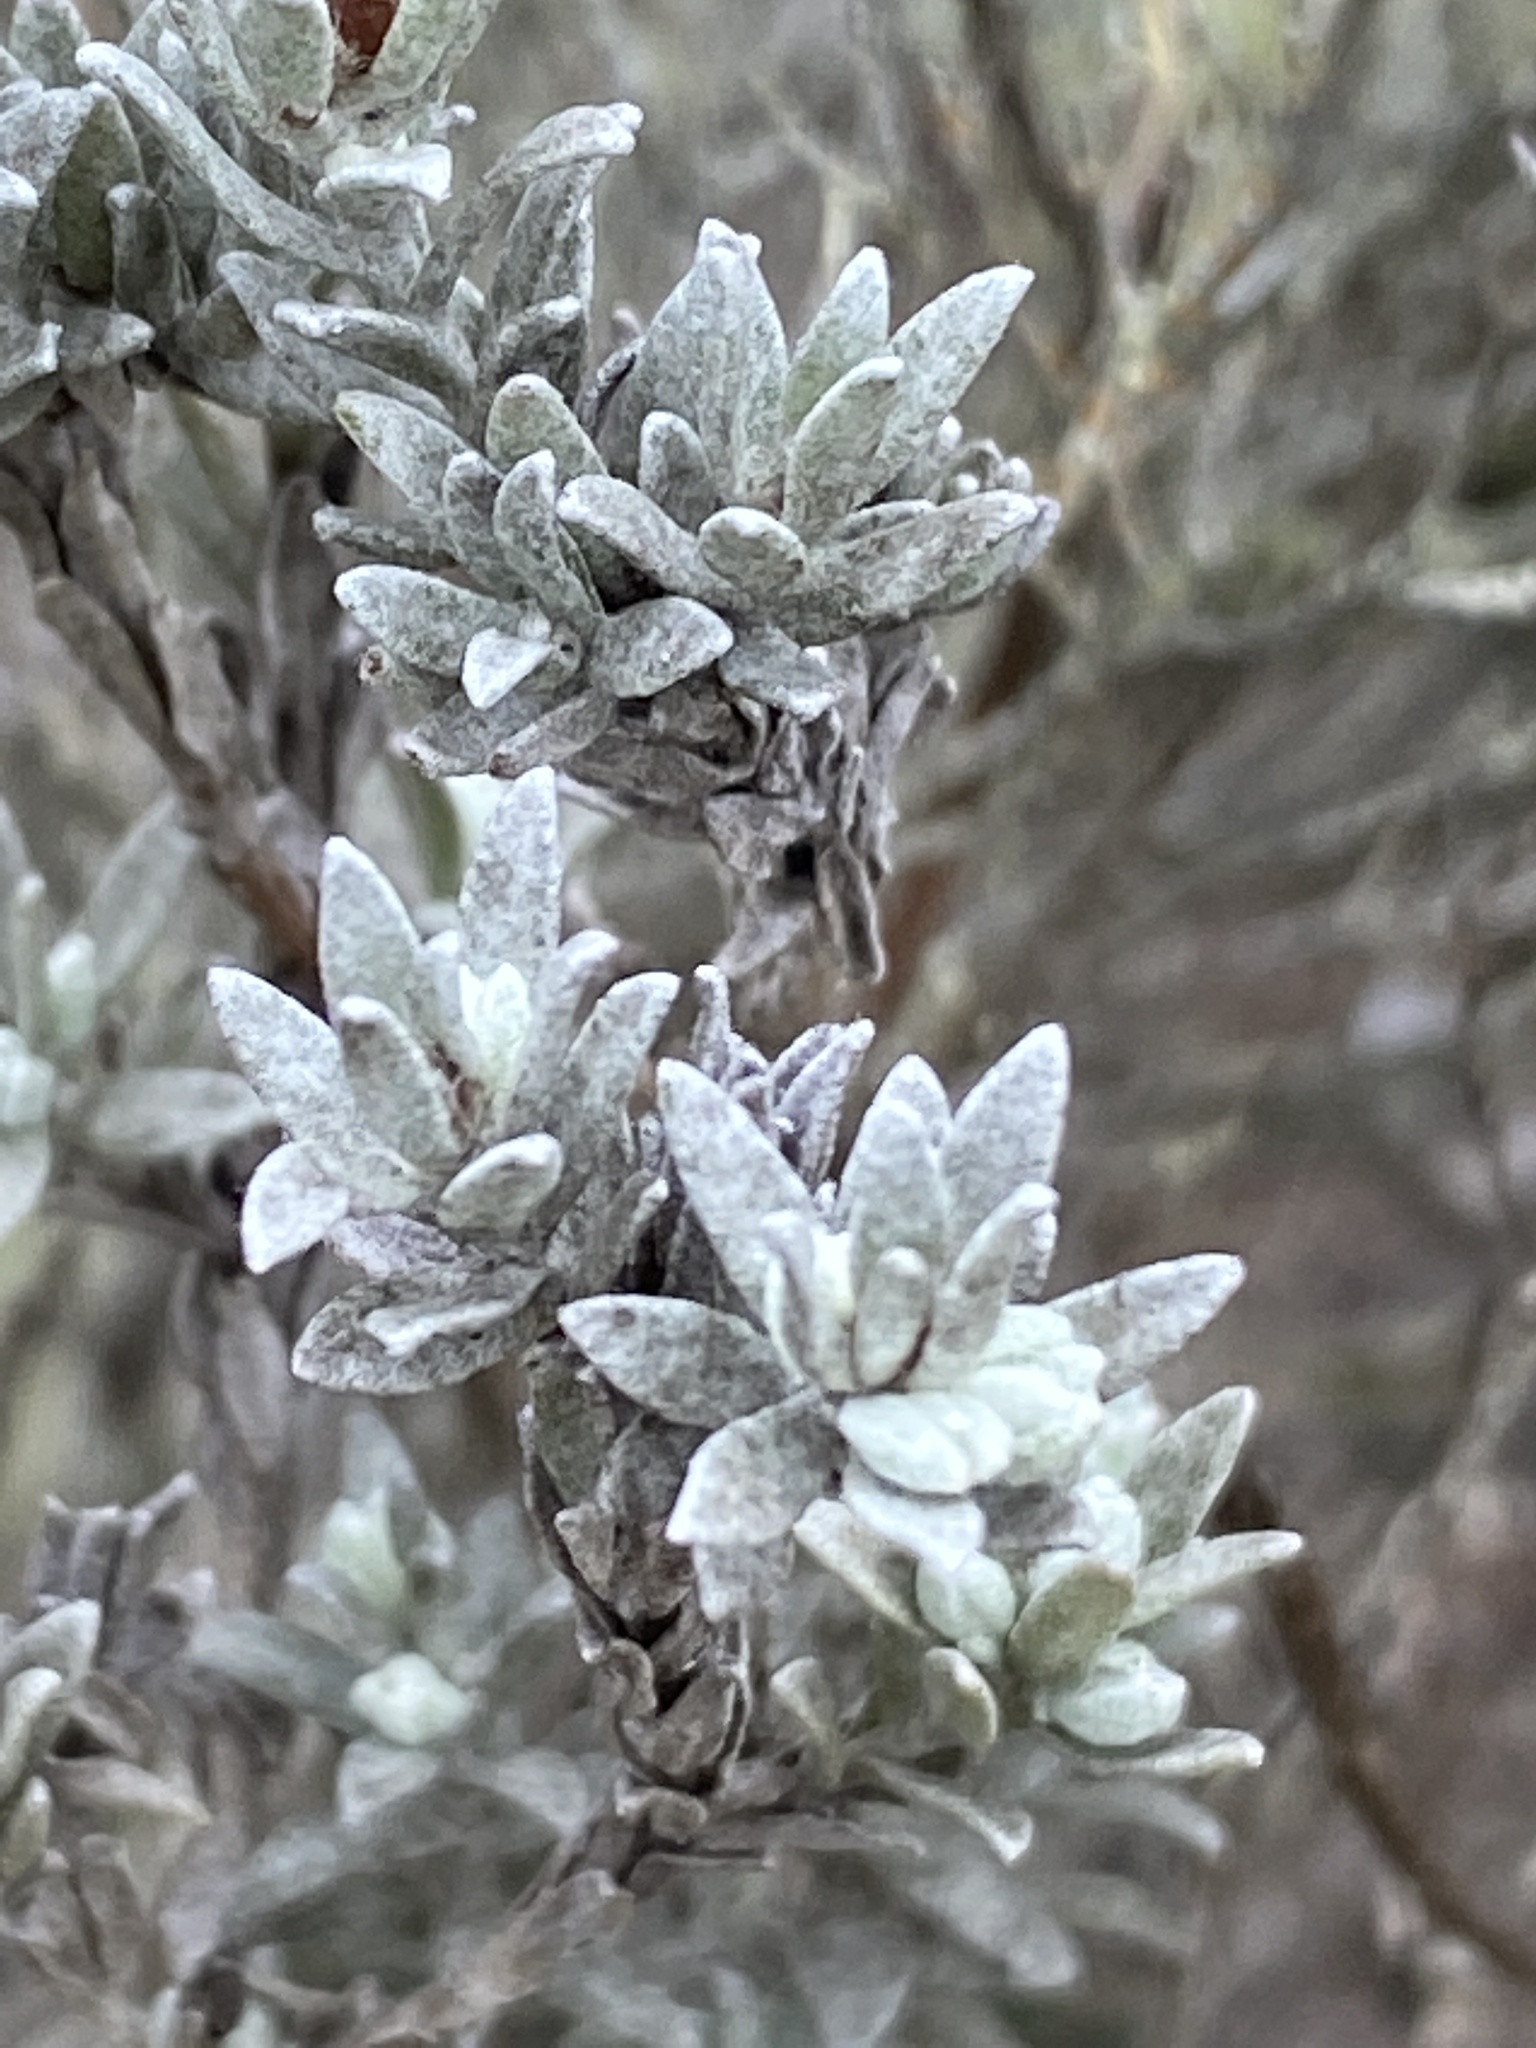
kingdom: Plantae
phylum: Tracheophyta
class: Magnoliopsida
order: Asterales
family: Asteraceae
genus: Syncarpha
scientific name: Syncarpha canescens
